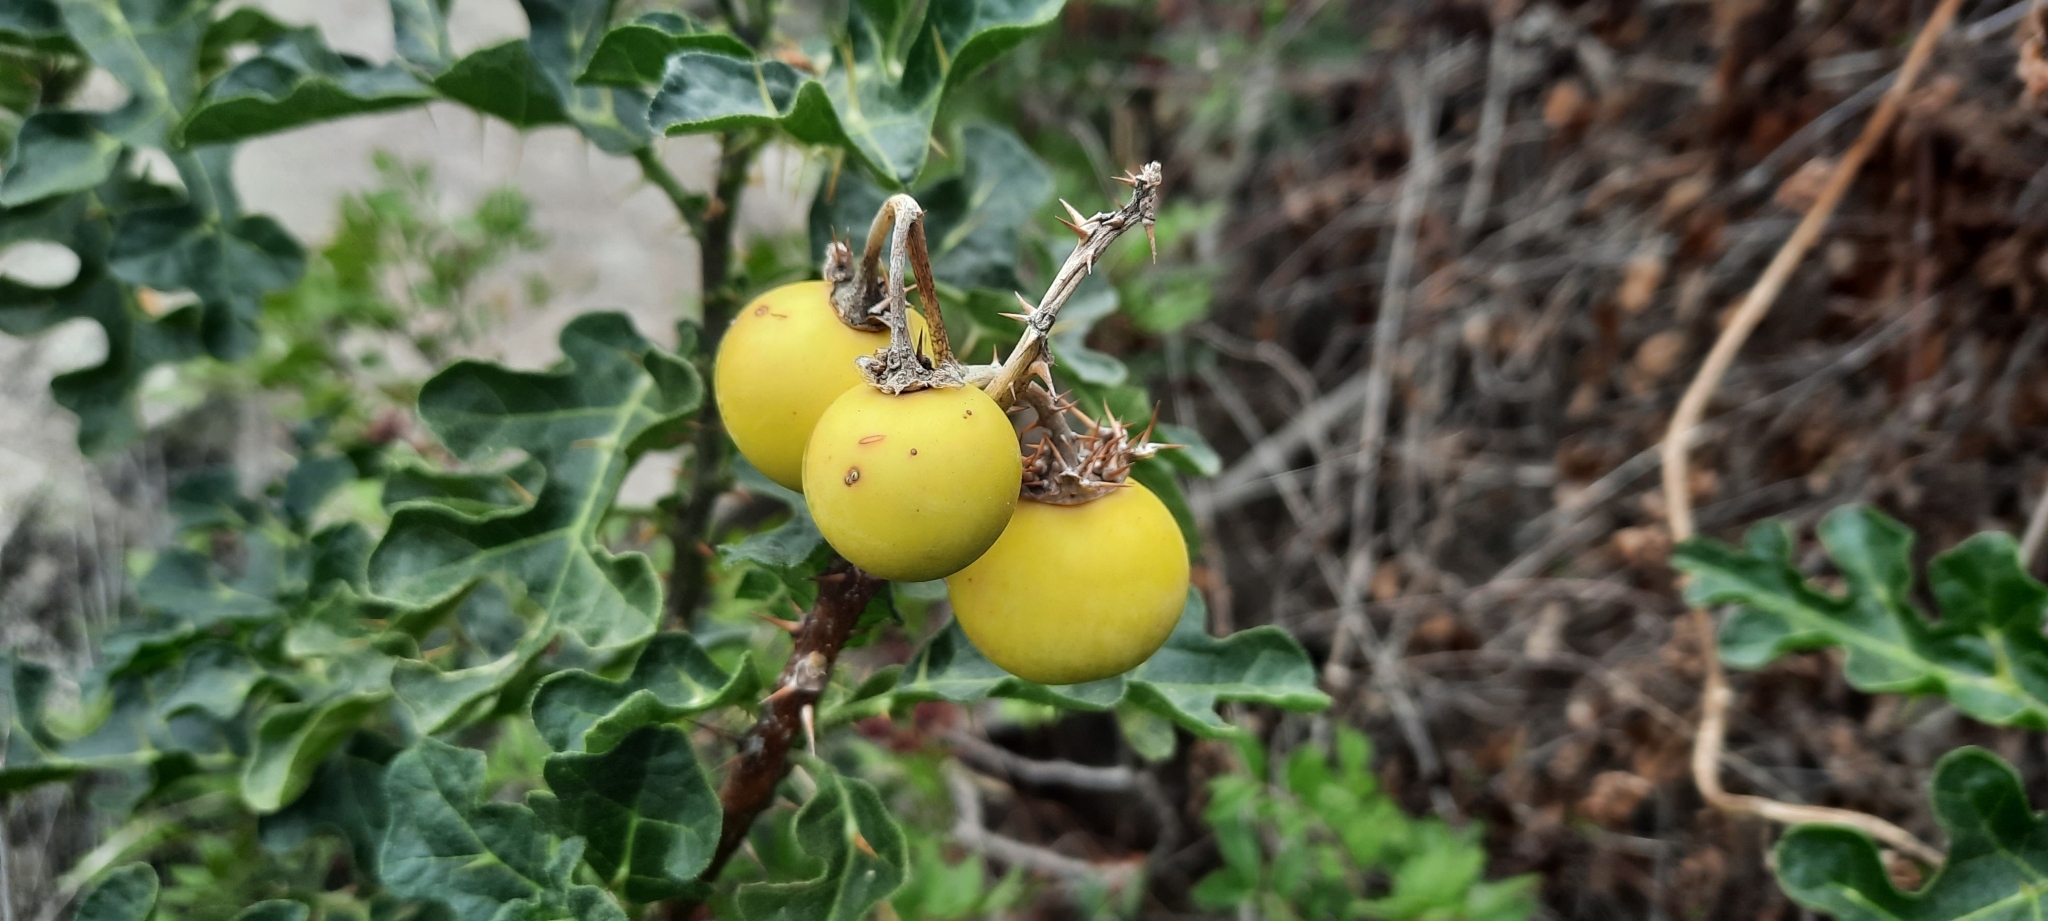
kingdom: Plantae
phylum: Tracheophyta
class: Magnoliopsida
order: Solanales
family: Solanaceae
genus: Solanum
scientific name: Solanum linnaeanum
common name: Nightshade
